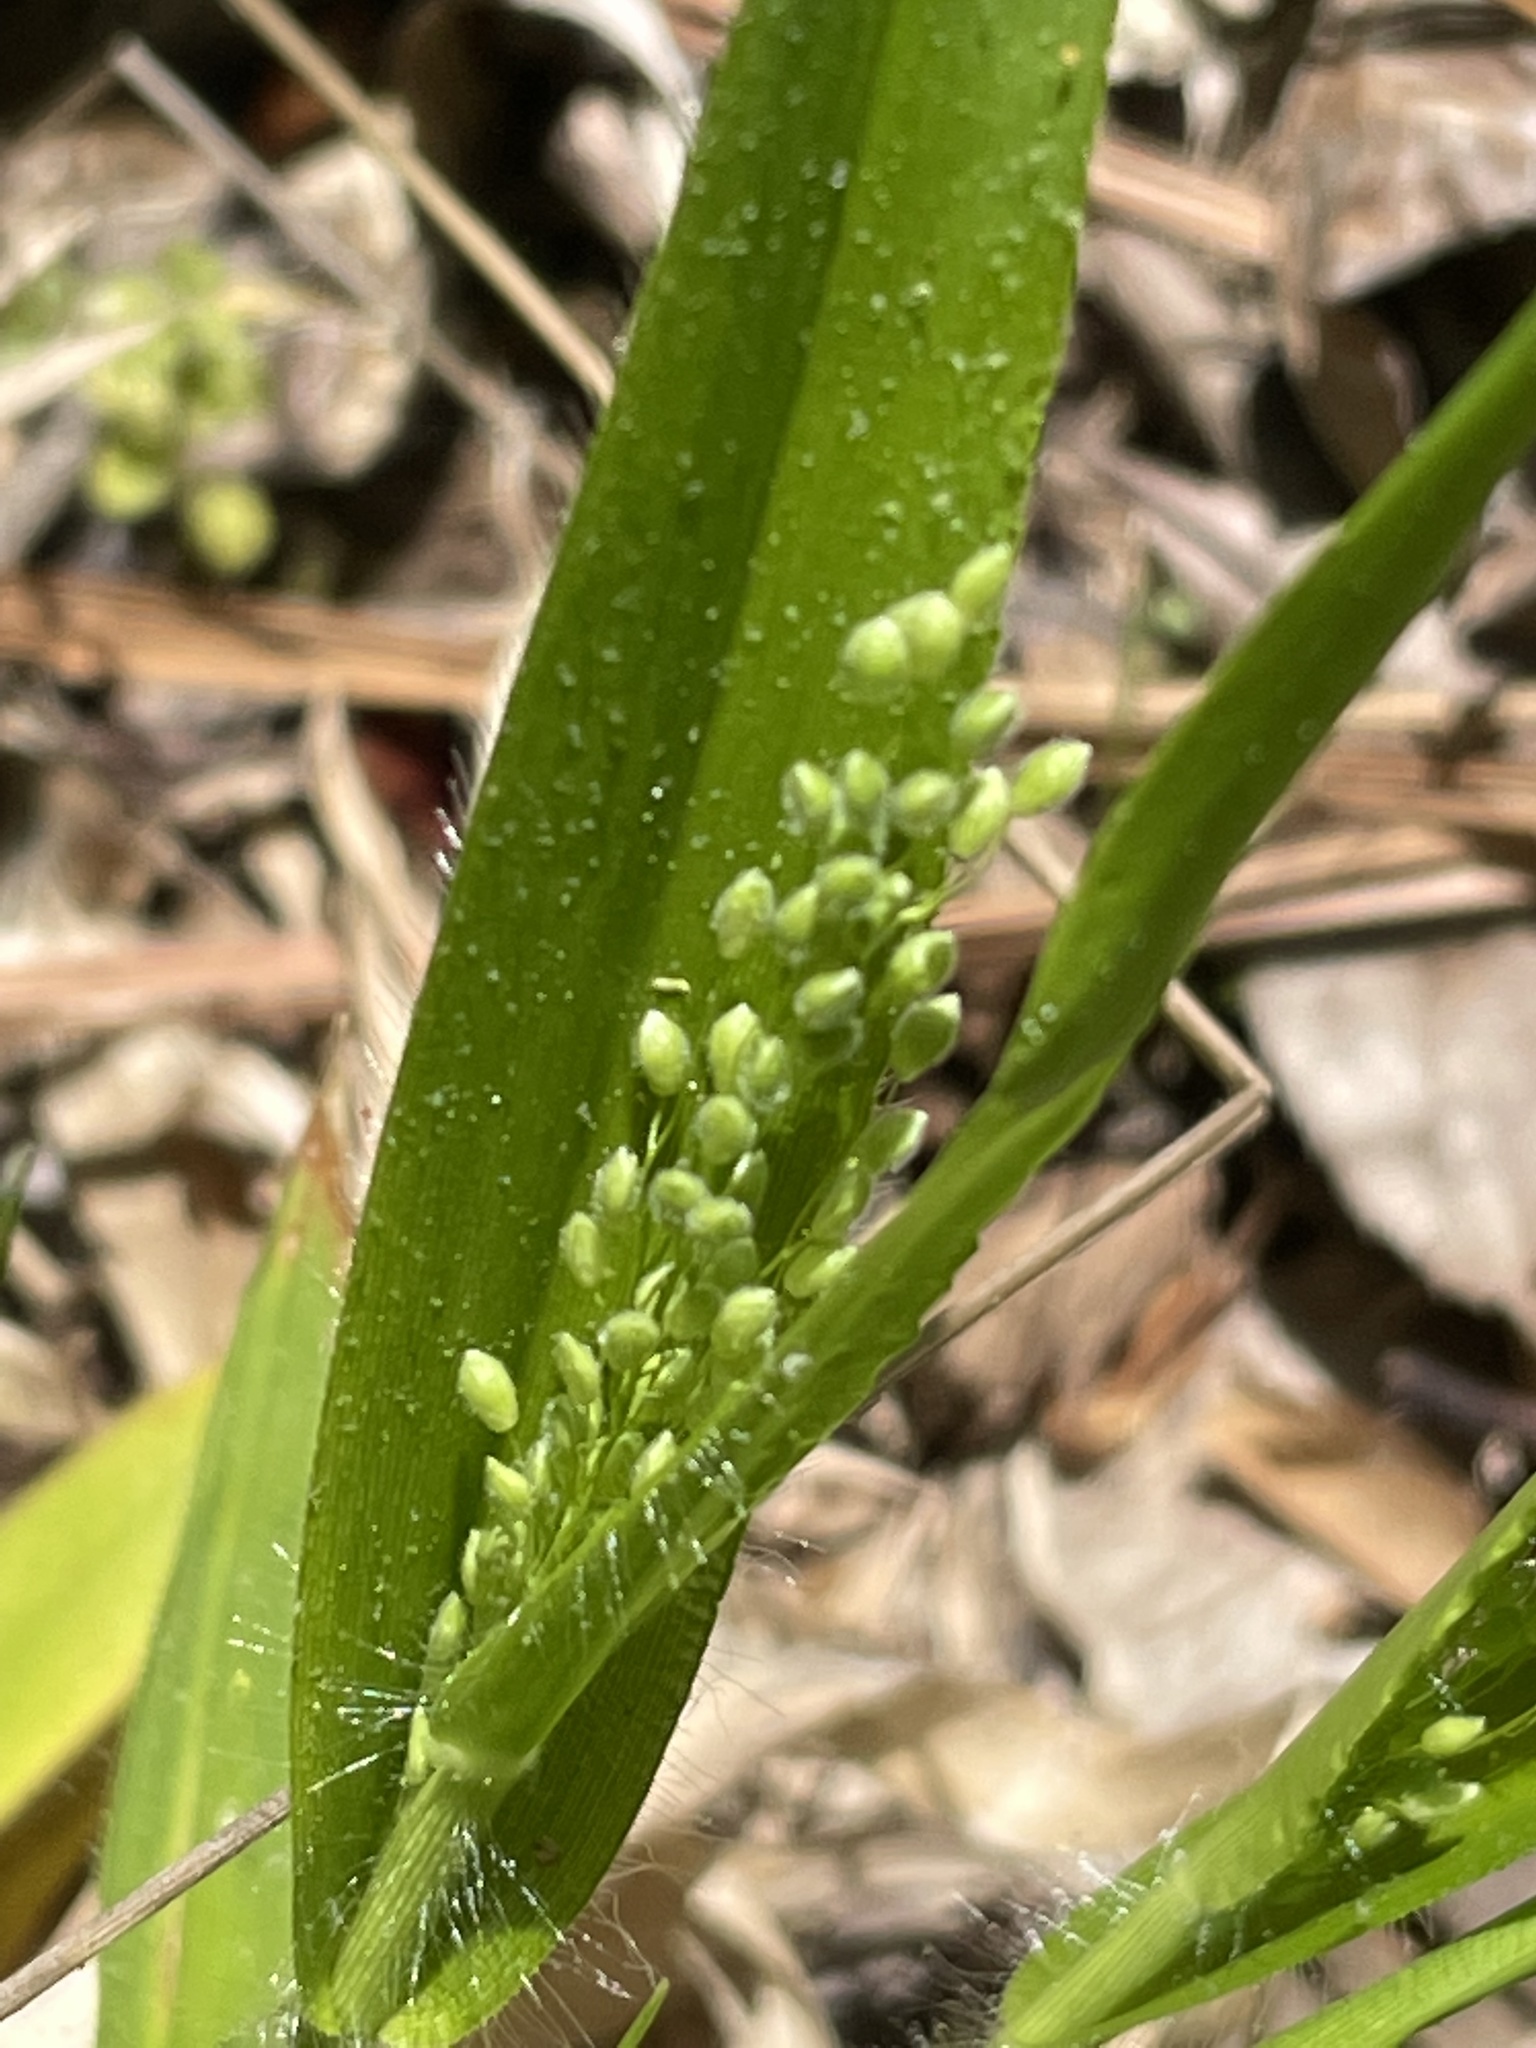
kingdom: Plantae
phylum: Tracheophyta
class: Liliopsida
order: Poales
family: Poaceae
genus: Dichanthelium
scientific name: Dichanthelium laxiflorum
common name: Soft-tuft panic grass
